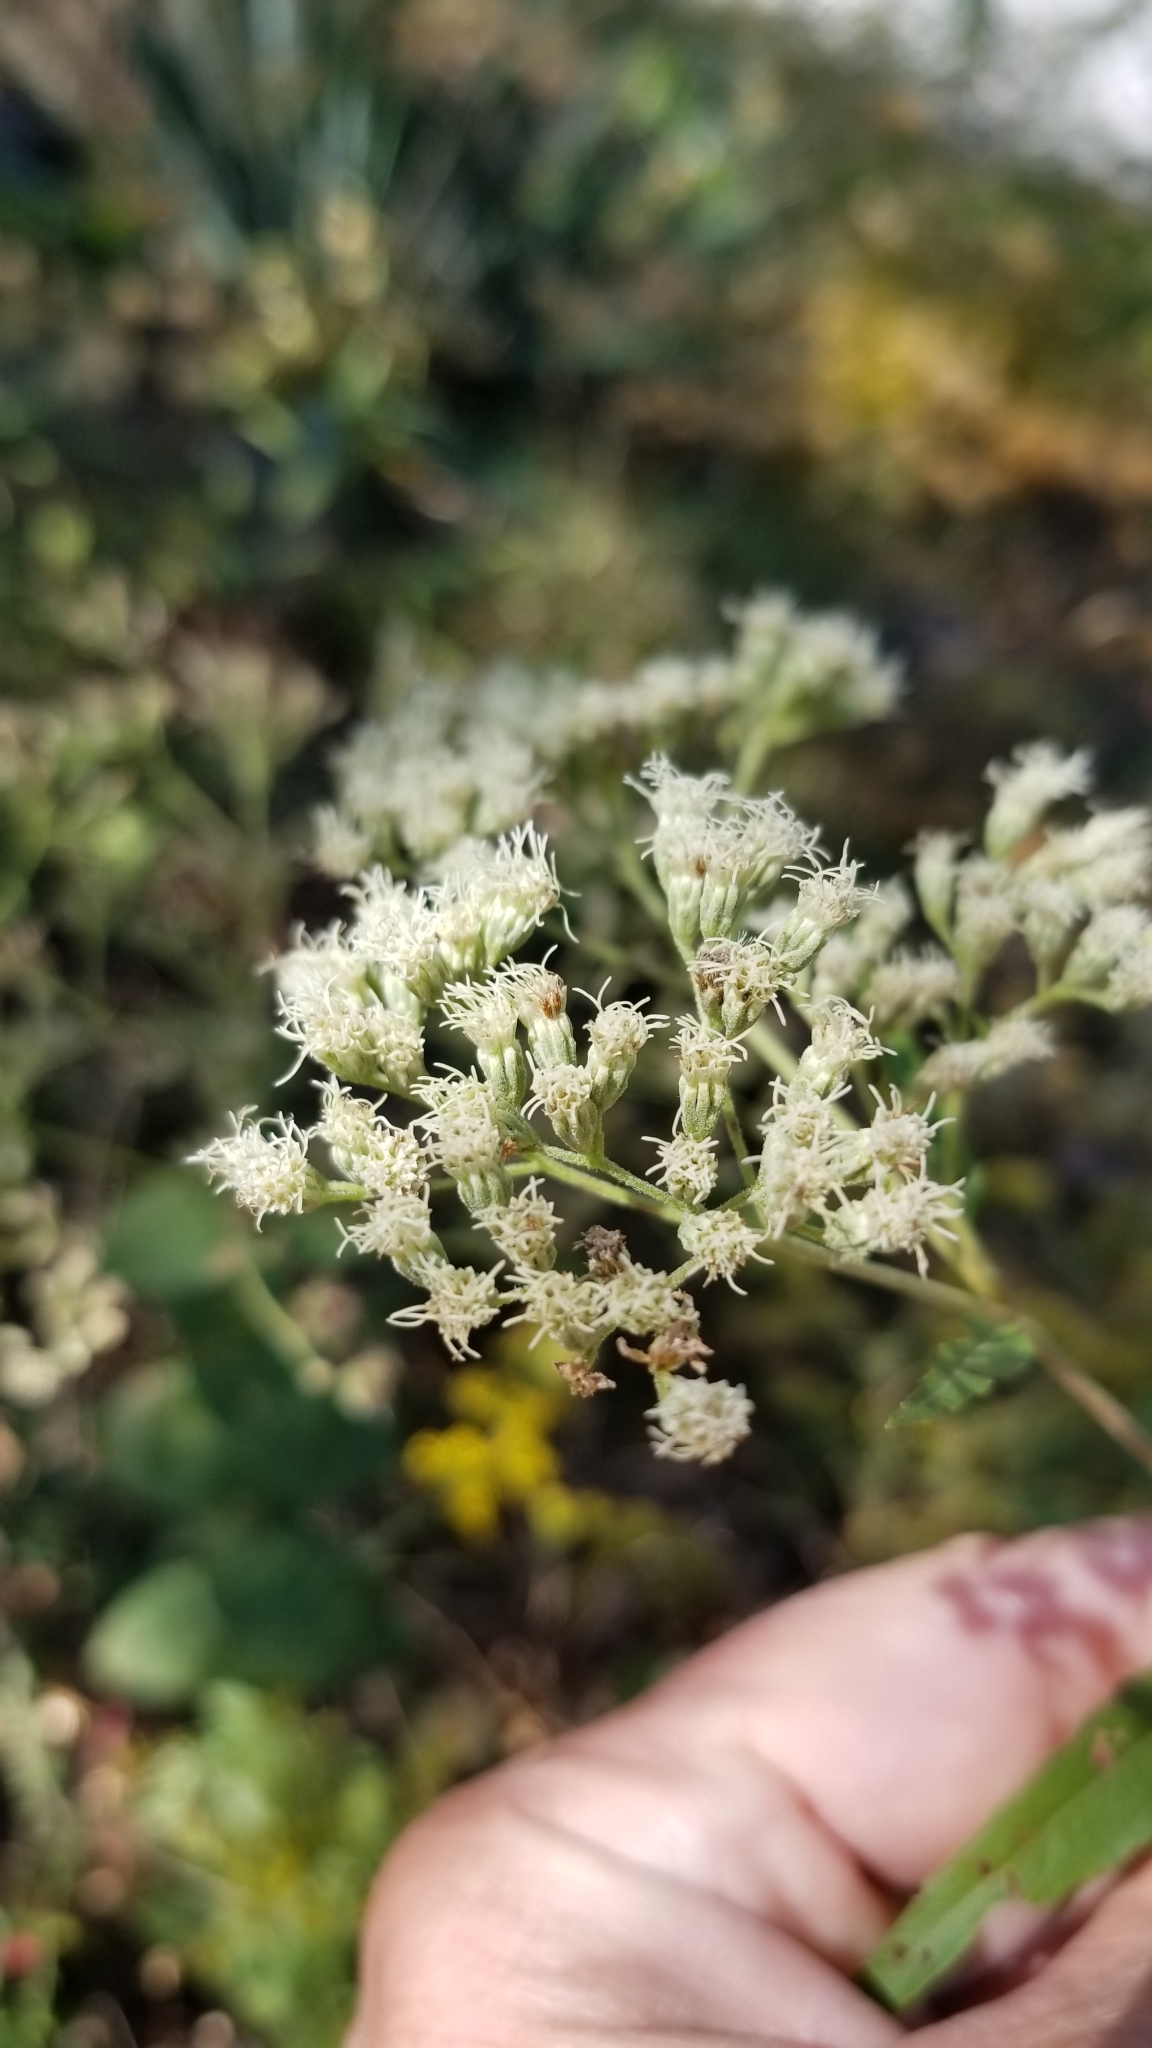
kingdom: Plantae
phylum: Tracheophyta
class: Magnoliopsida
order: Asterales
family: Asteraceae
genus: Eupatorium
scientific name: Eupatorium serotinum
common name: Late boneset
